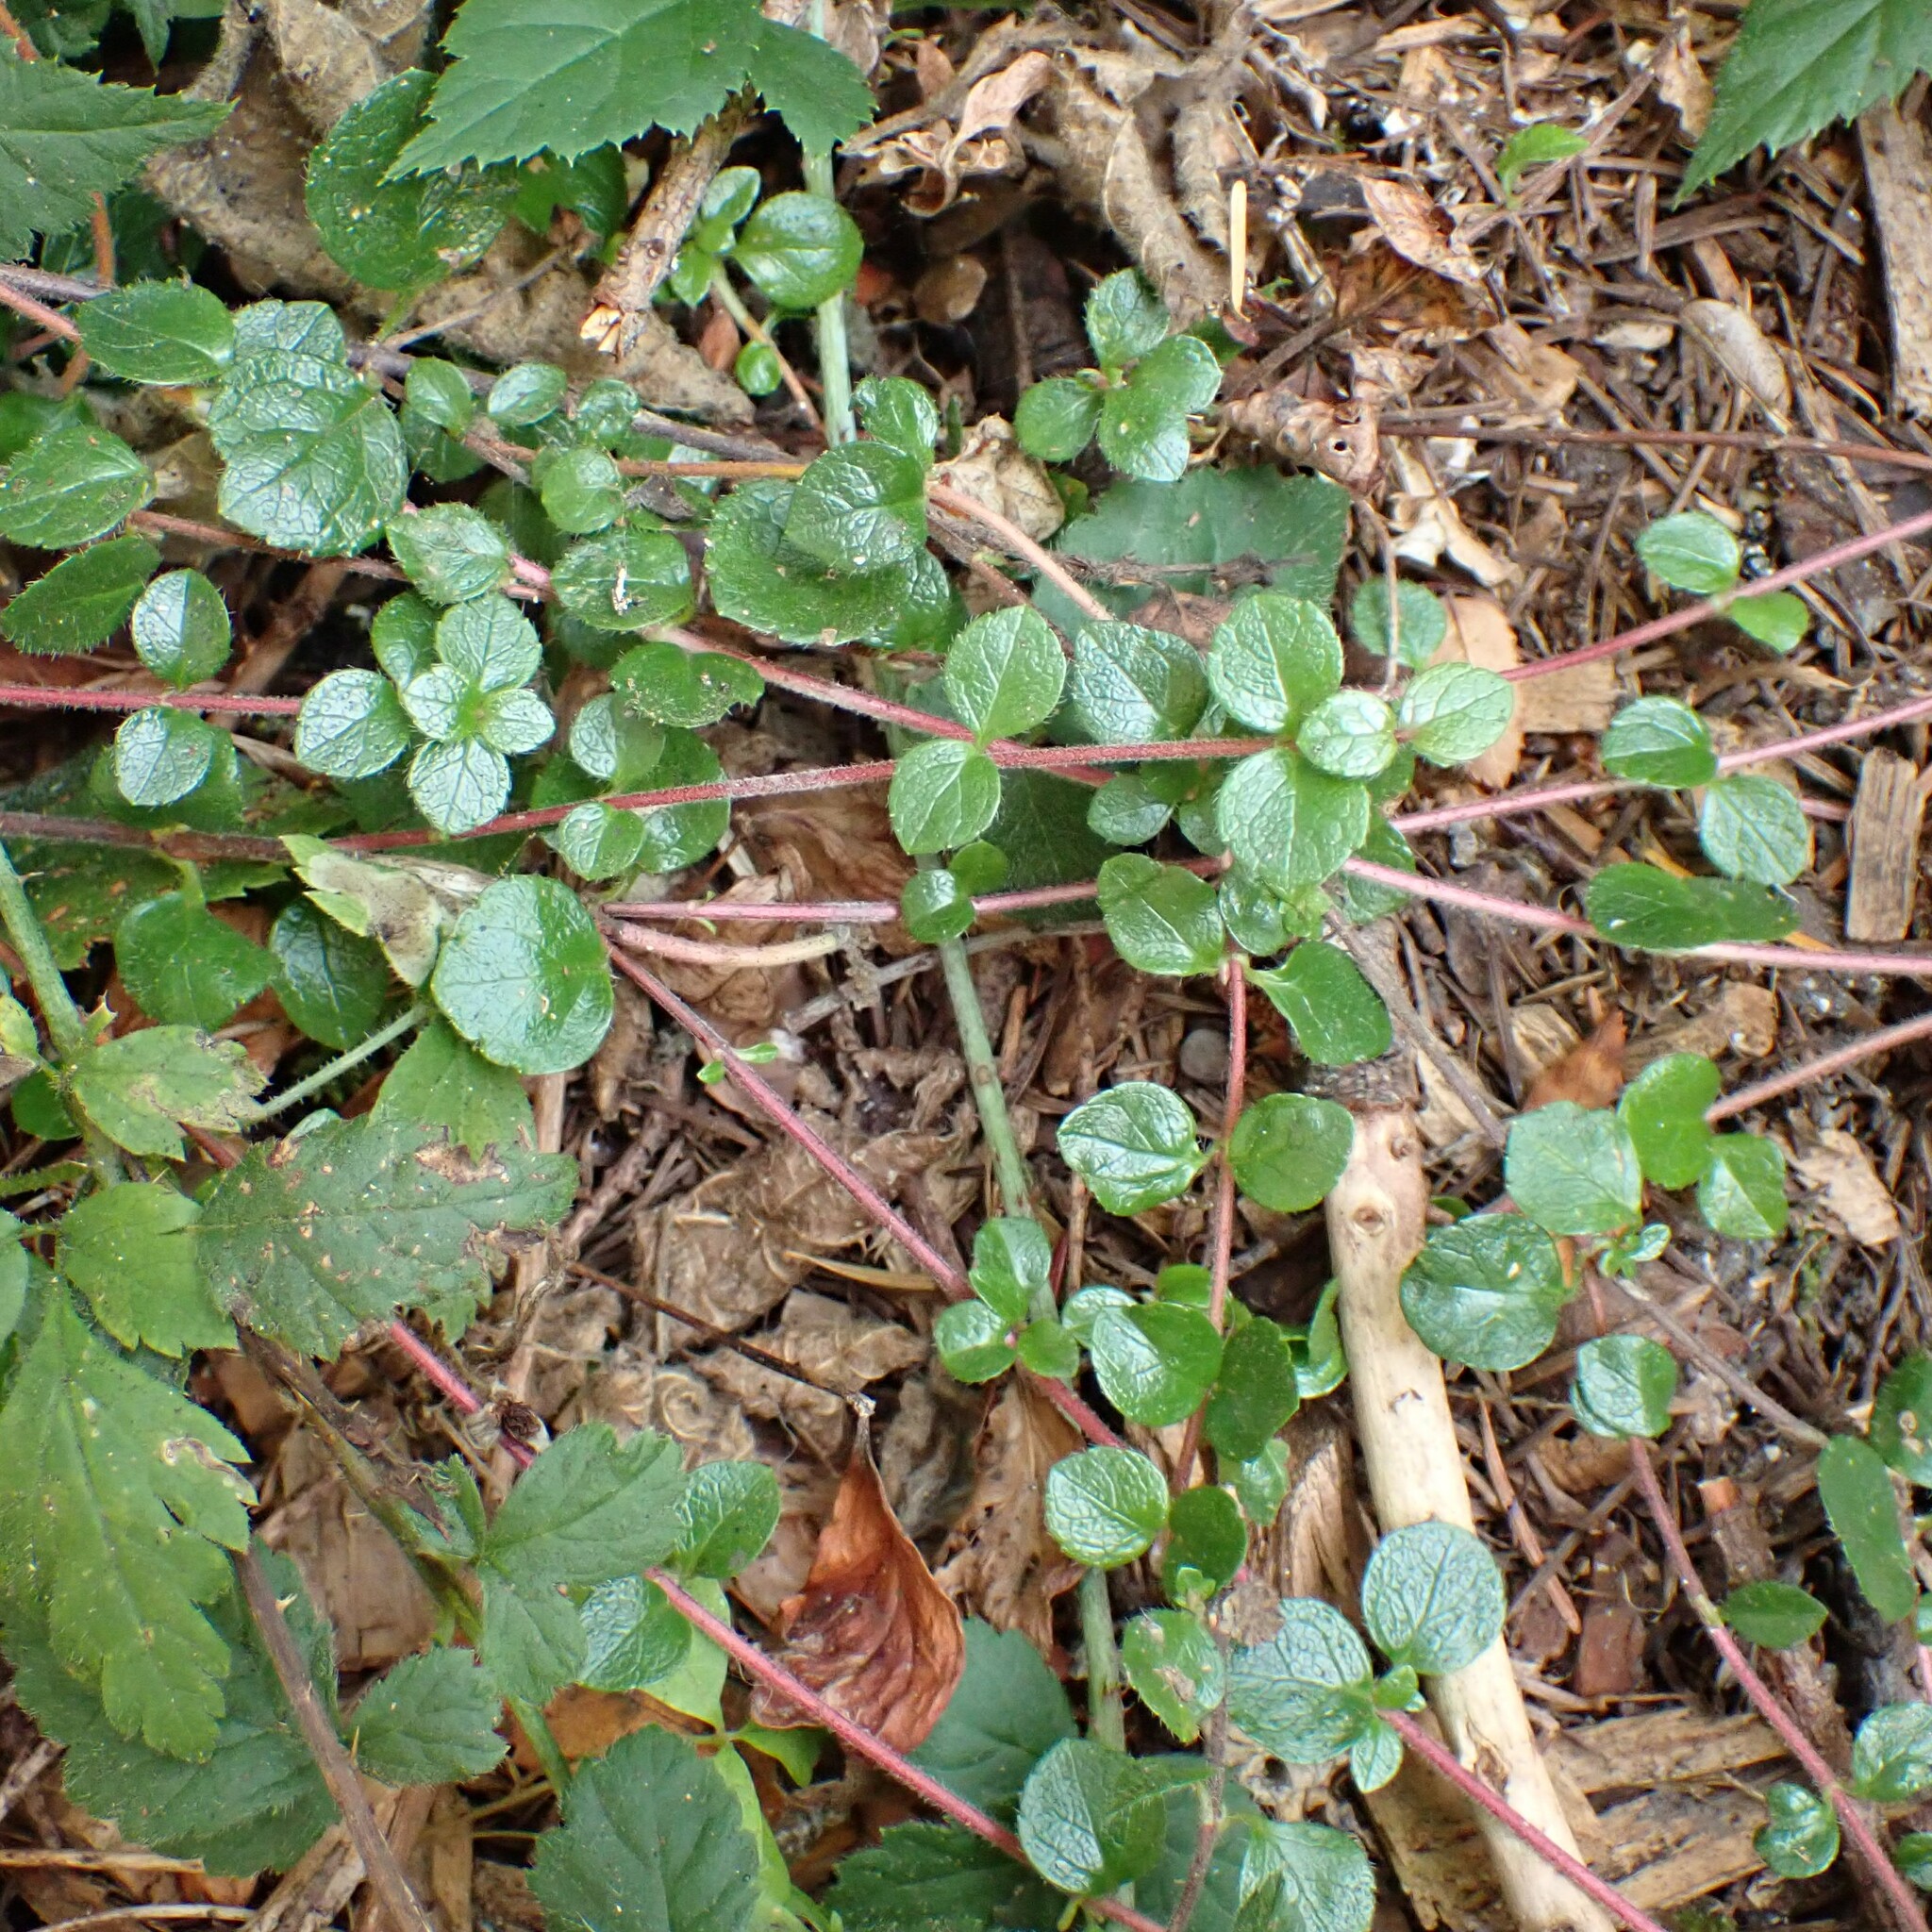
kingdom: Plantae
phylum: Tracheophyta
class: Magnoliopsida
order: Dipsacales
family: Caprifoliaceae
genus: Linnaea
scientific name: Linnaea borealis
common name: Twinflower
